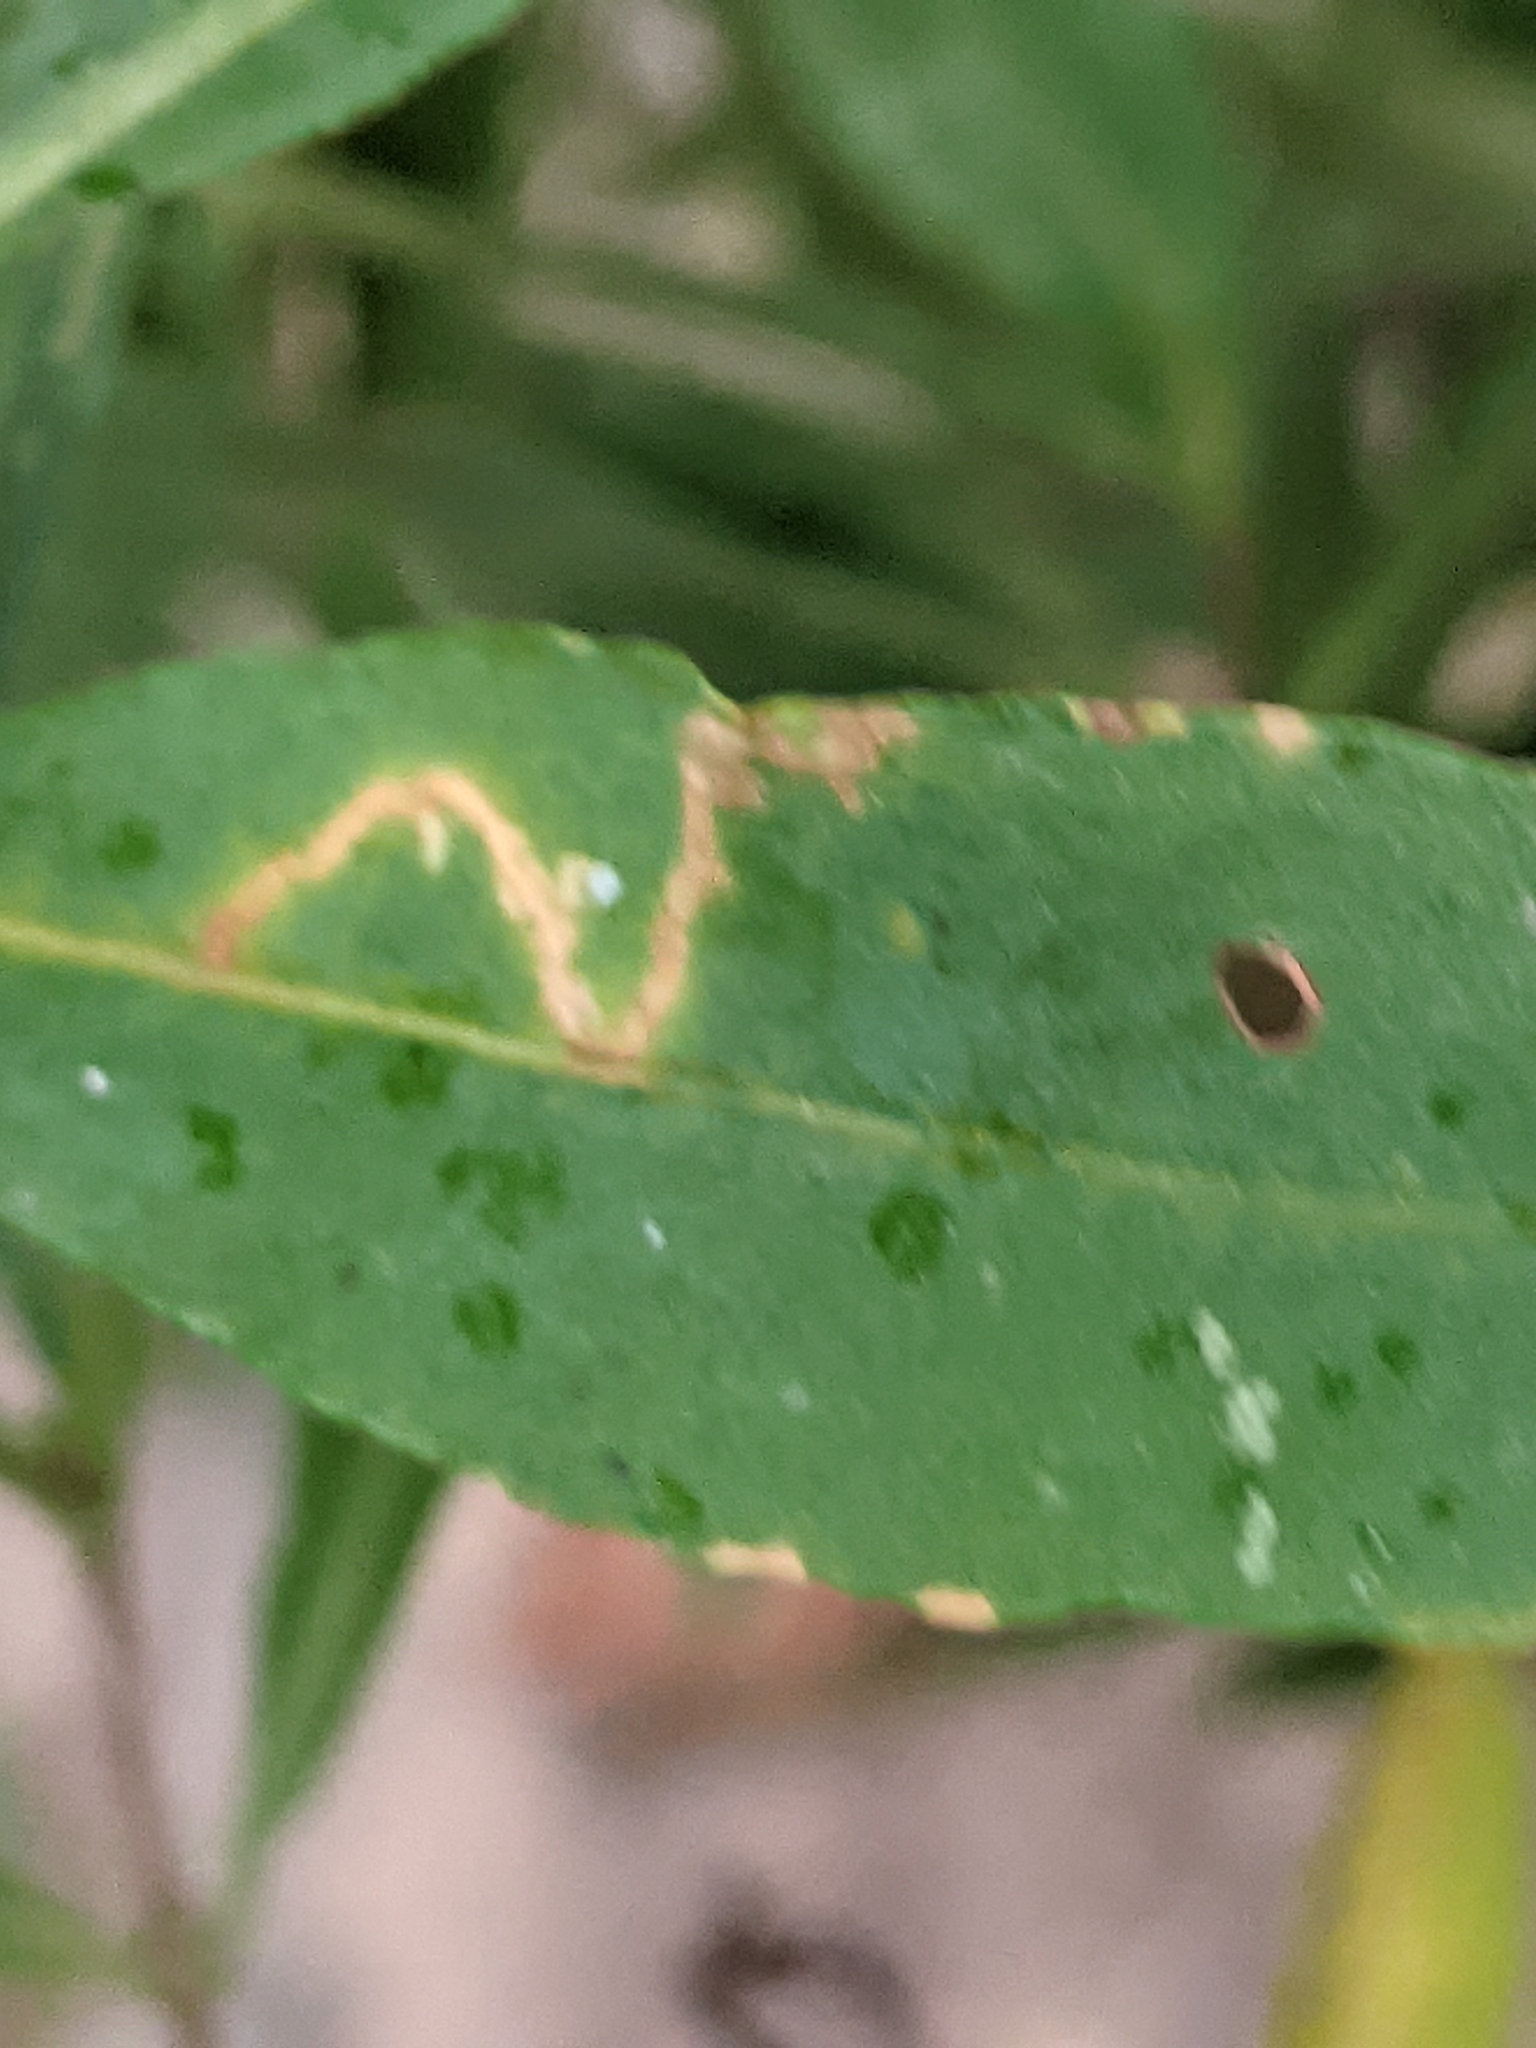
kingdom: Animalia
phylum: Arthropoda
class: Insecta
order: Lepidoptera
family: Gracillariidae
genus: Caloptilia
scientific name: Caloptilia hypericella
